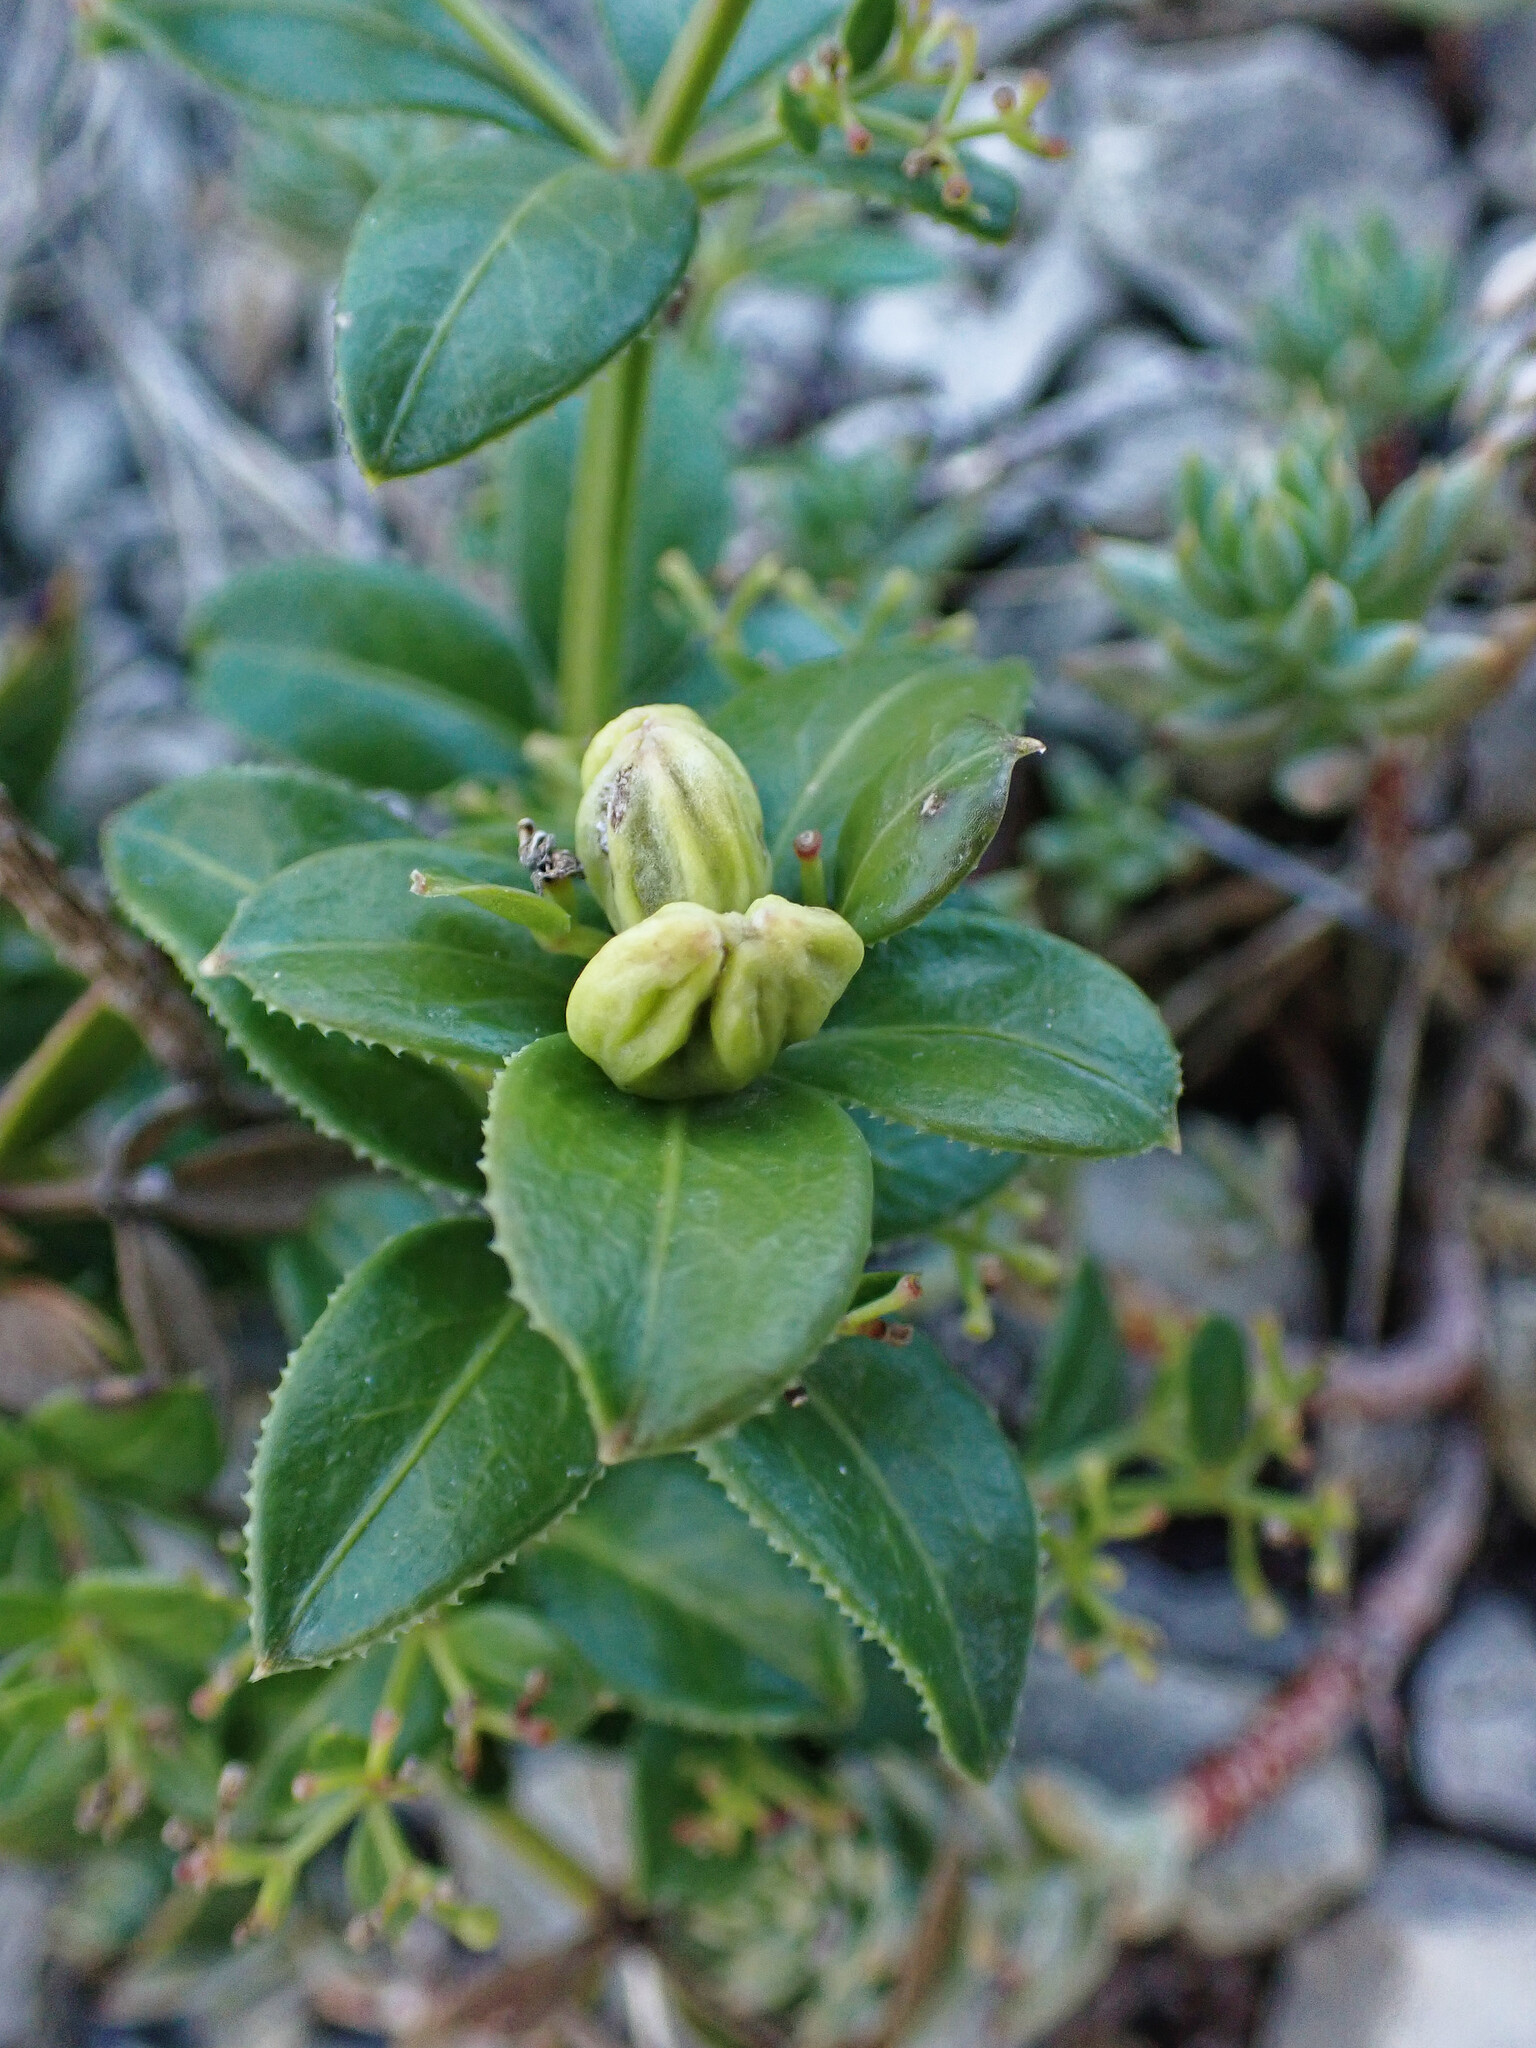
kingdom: Plantae
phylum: Tracheophyta
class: Magnoliopsida
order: Gentianales
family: Rubiaceae
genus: Rubia
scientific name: Rubia peregrina
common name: Wild madder
